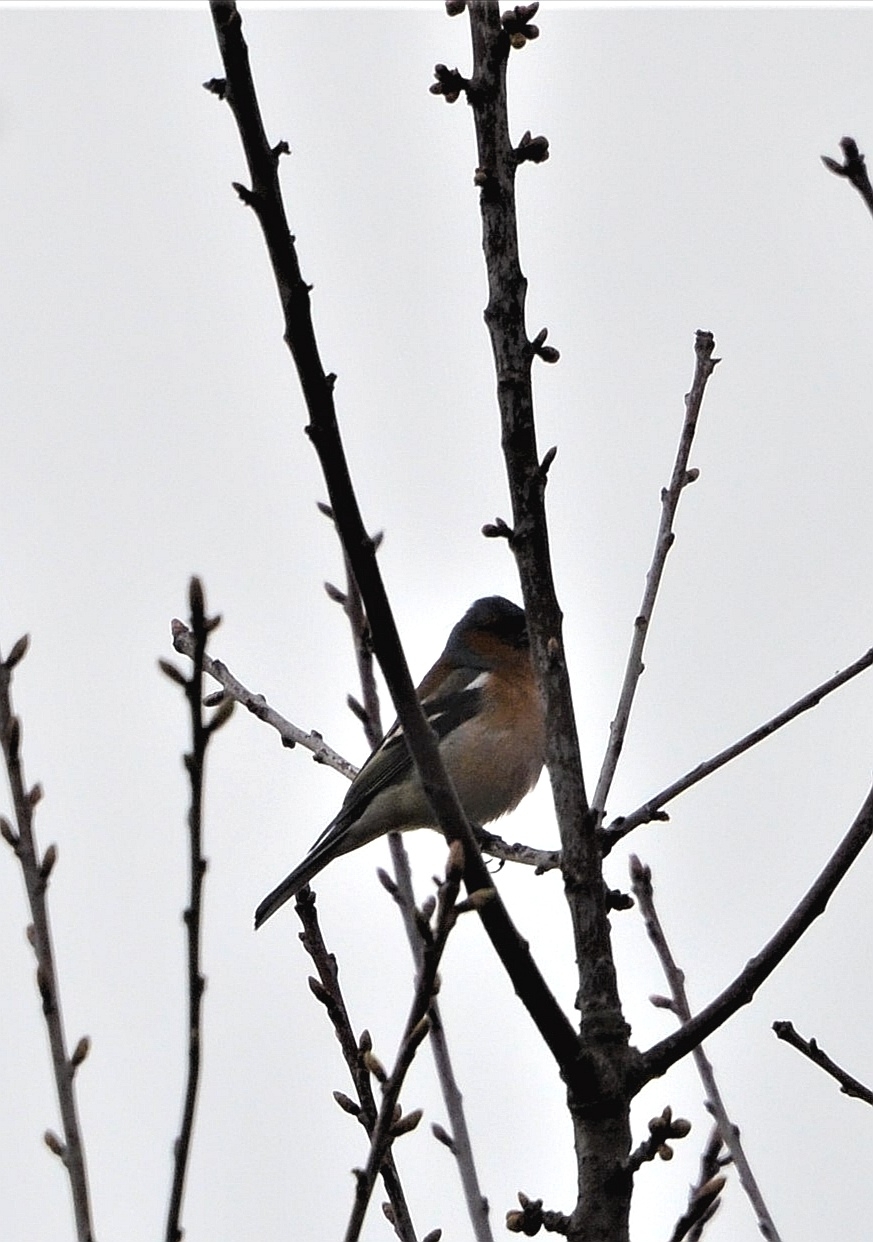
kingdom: Animalia
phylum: Chordata
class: Aves
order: Passeriformes
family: Fringillidae
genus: Fringilla
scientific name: Fringilla coelebs
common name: Common chaffinch
